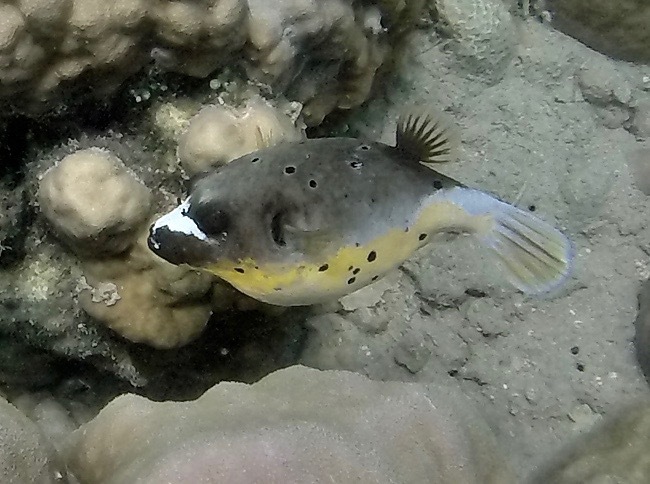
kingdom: Animalia
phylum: Chordata
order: Tetraodontiformes
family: Tetraodontidae
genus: Arothron
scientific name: Arothron nigropunctatus
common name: Black spotted blow fish
